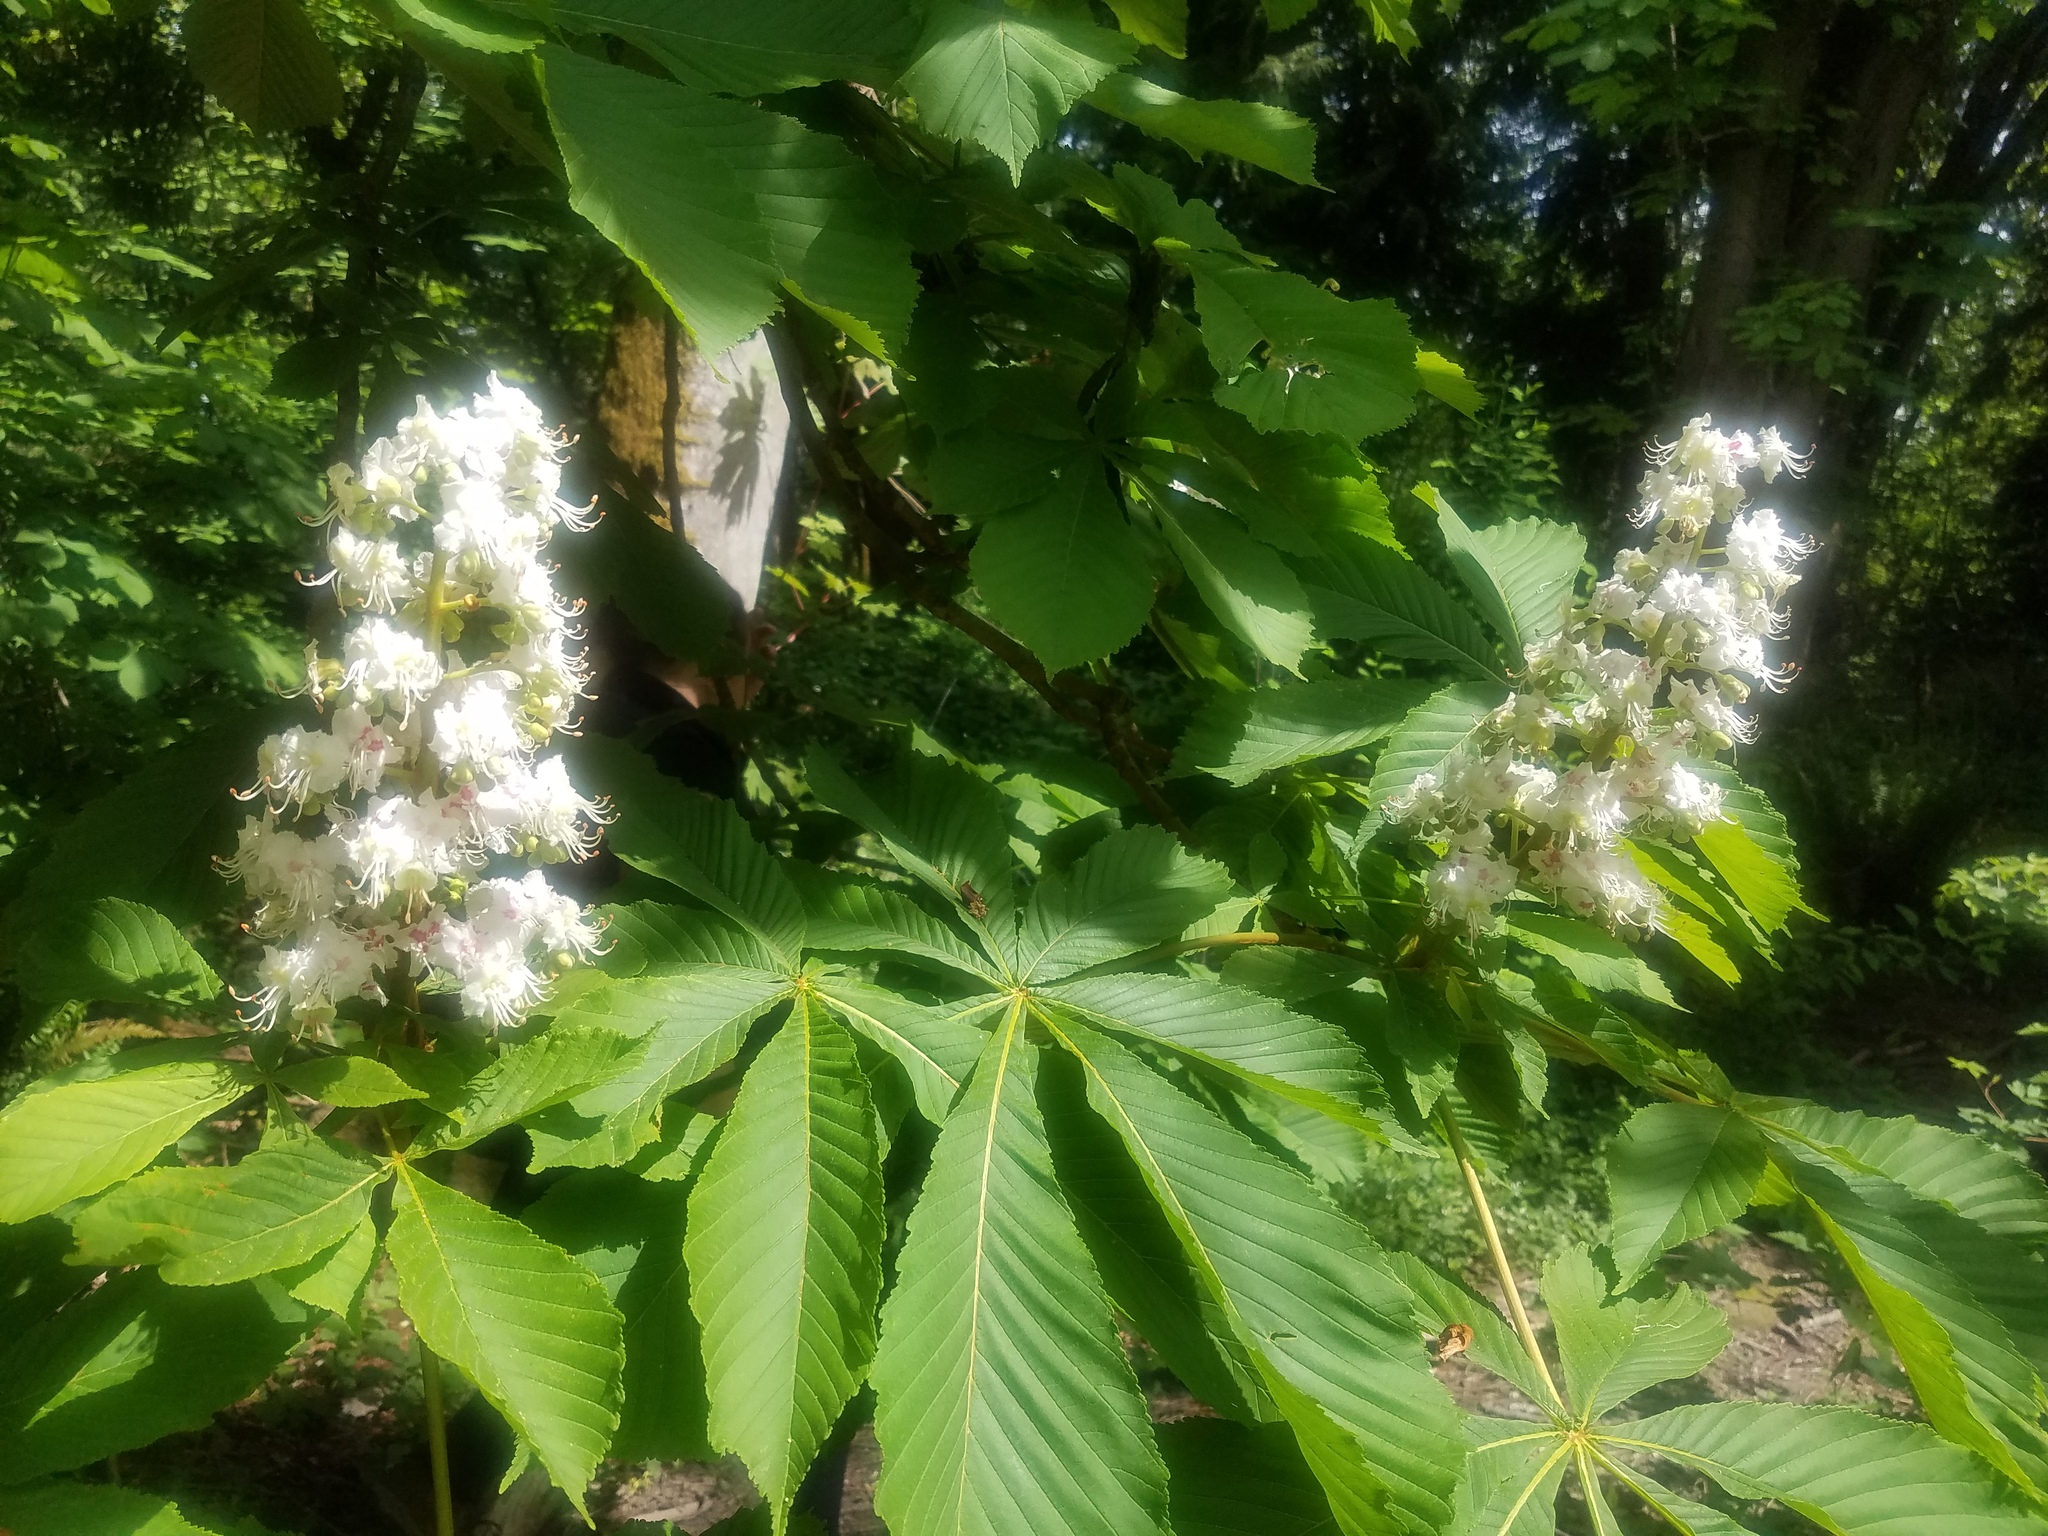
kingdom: Plantae
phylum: Tracheophyta
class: Magnoliopsida
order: Sapindales
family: Sapindaceae
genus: Aesculus
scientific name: Aesculus hippocastanum
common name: Horse-chestnut
